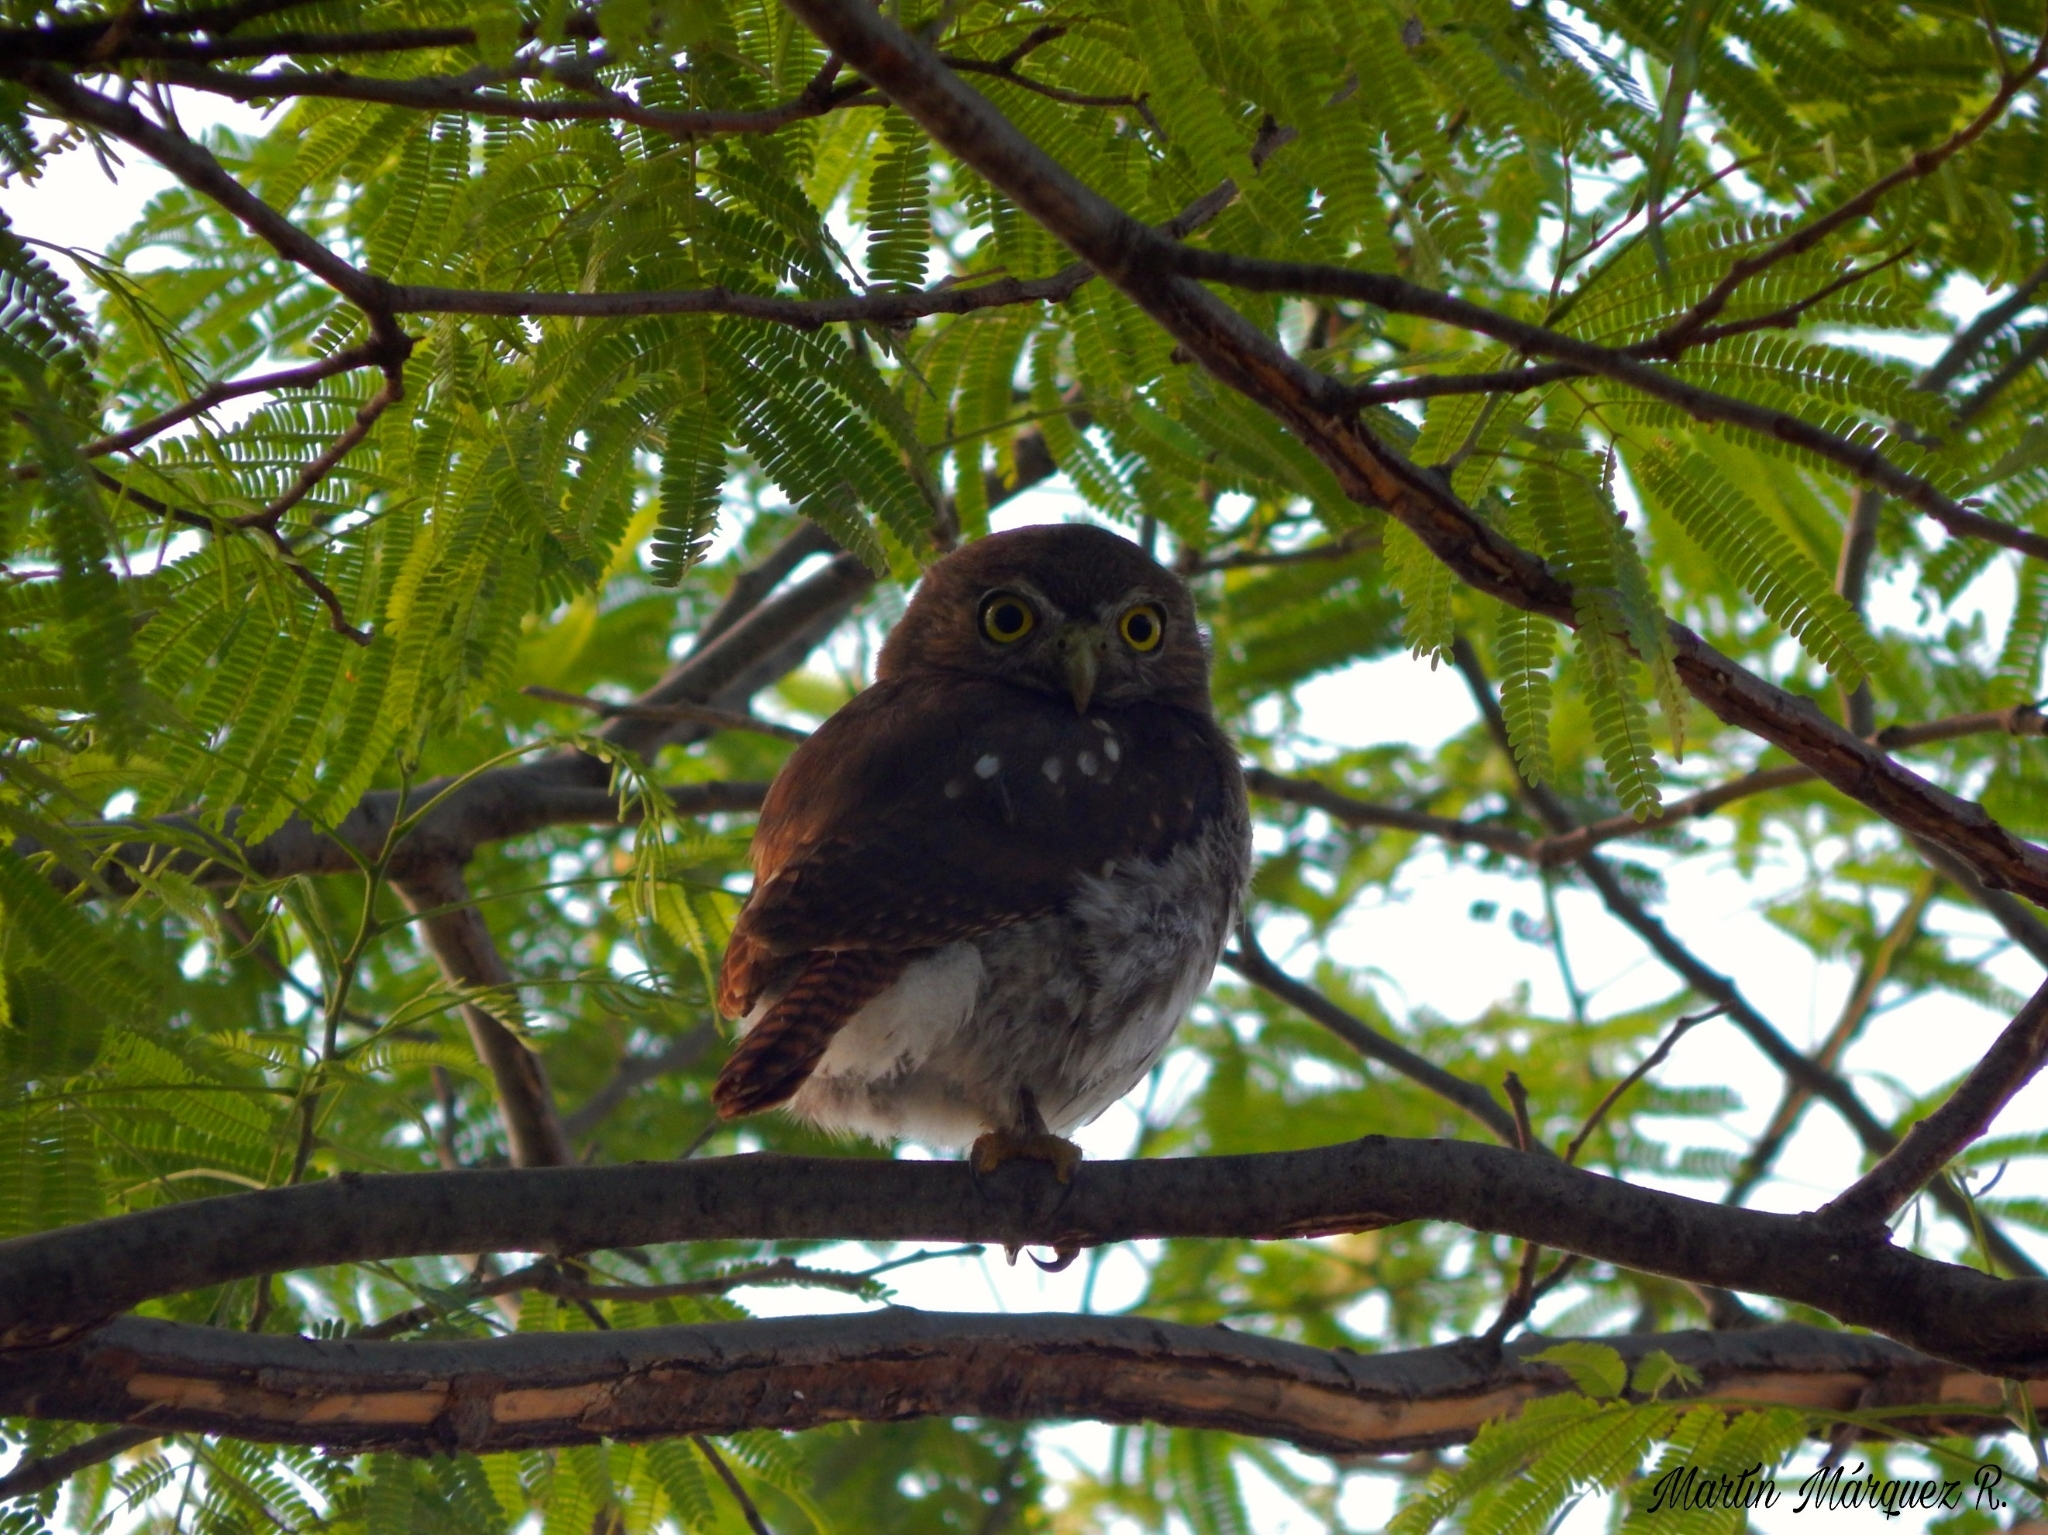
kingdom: Animalia
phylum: Chordata
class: Aves
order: Strigiformes
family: Strigidae
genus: Glaucidium
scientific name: Glaucidium brasilianum
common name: Ferruginous pygmy-owl
